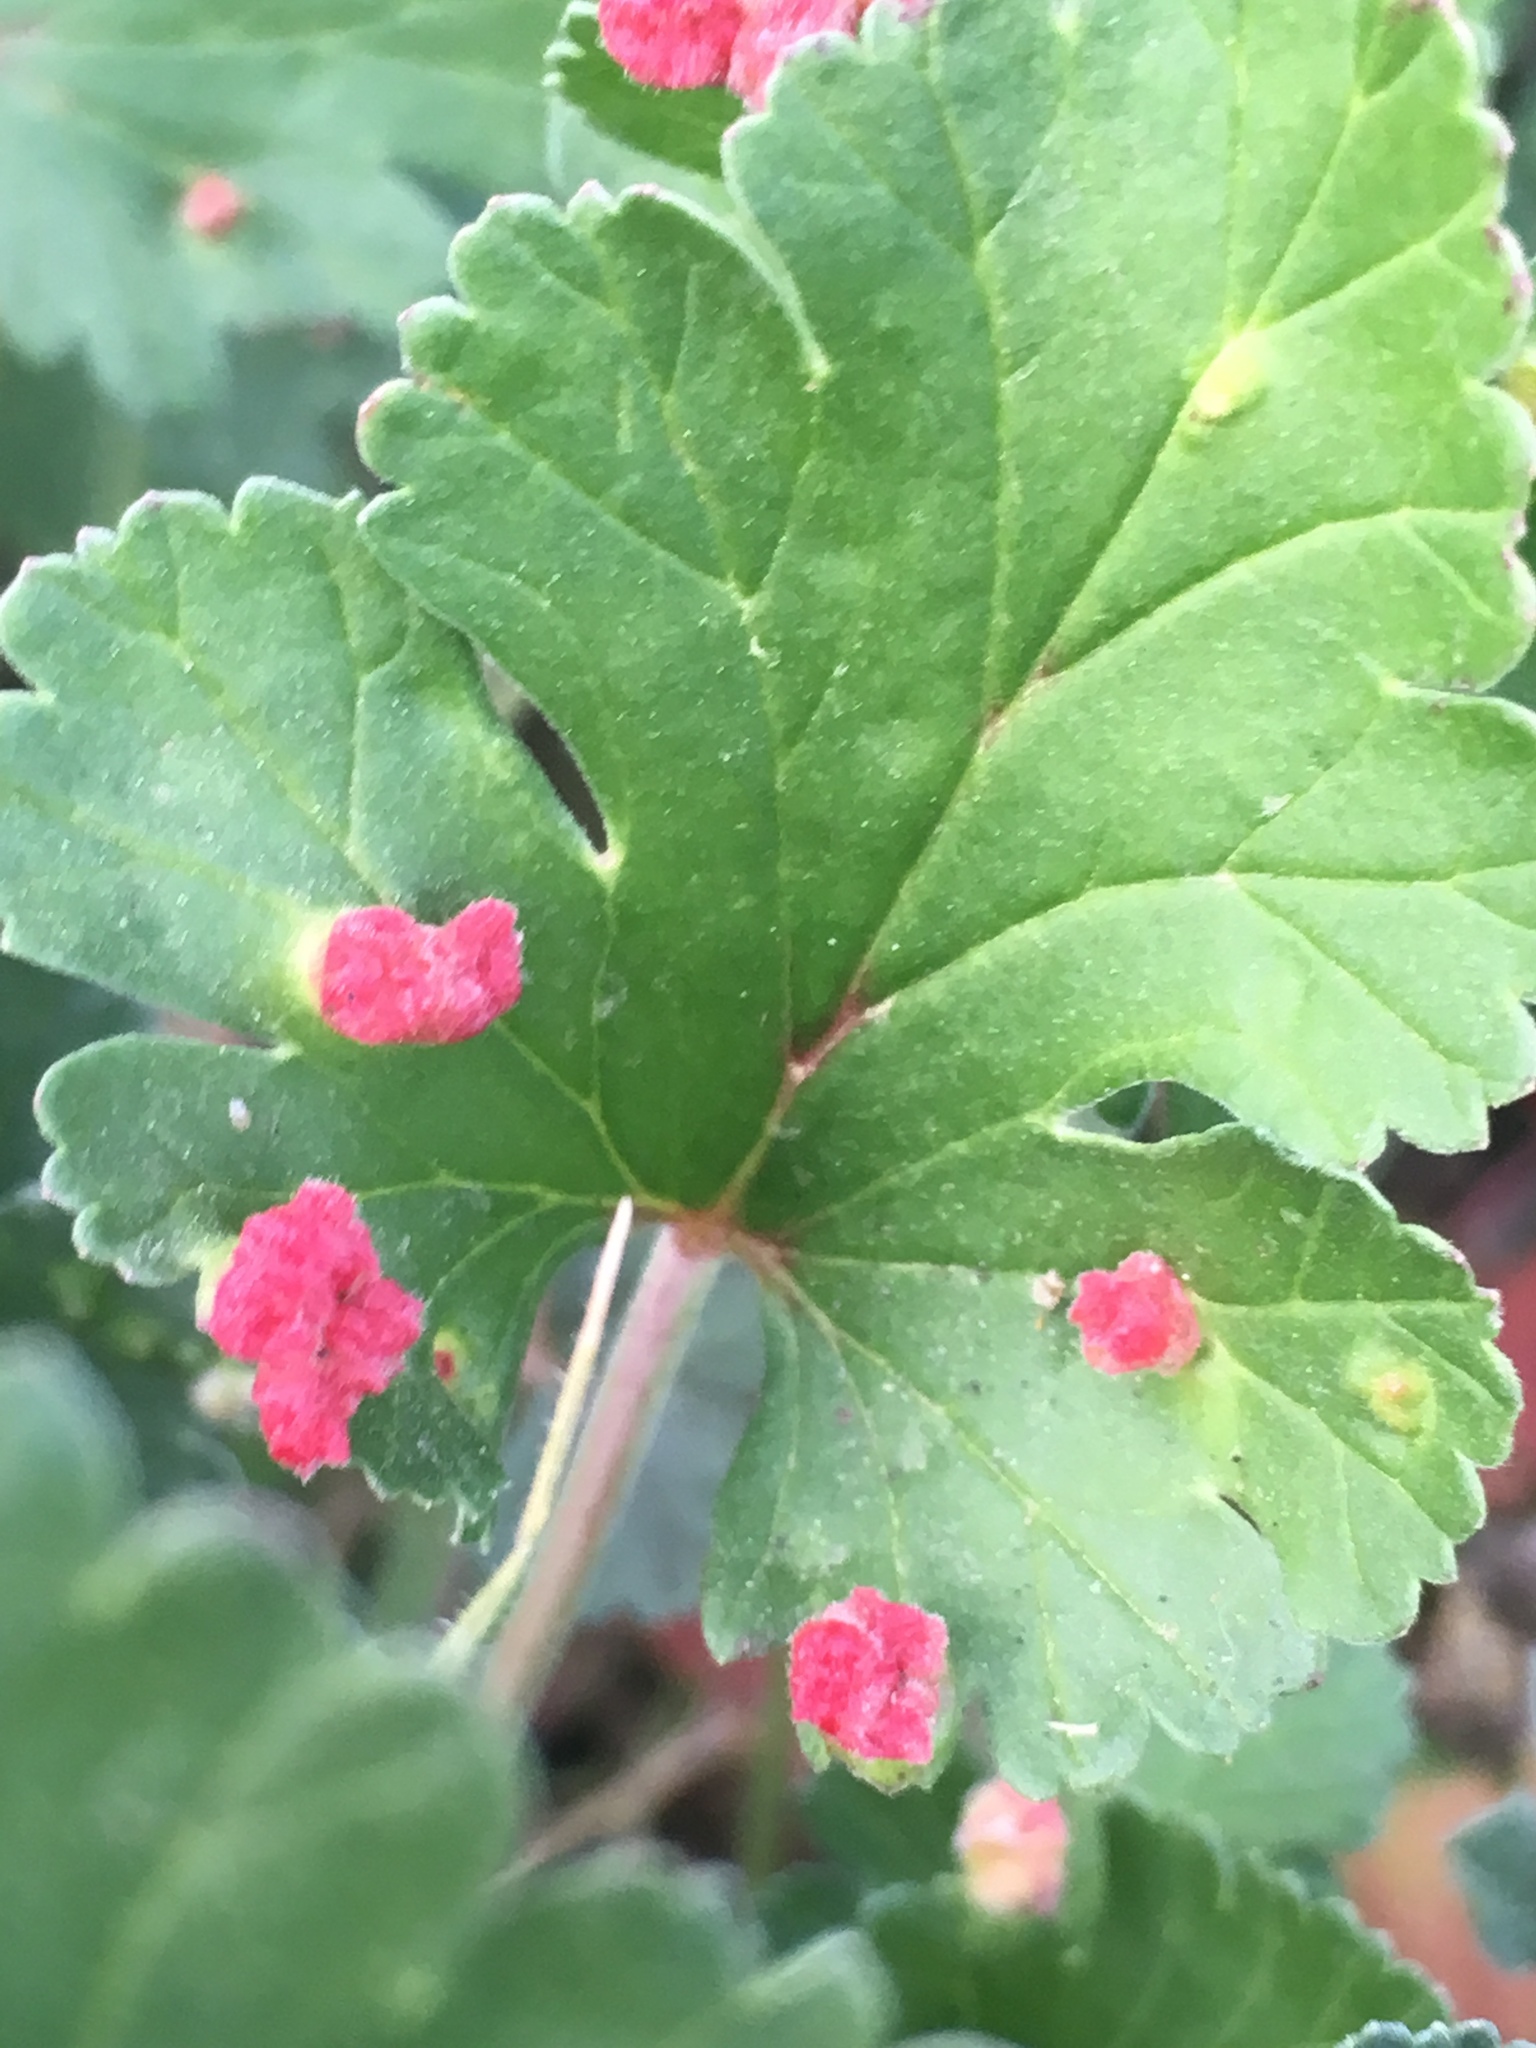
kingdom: Plantae
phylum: Tracheophyta
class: Magnoliopsida
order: Geraniales
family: Geraniaceae
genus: Erodium
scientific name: Erodium texanum
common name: Texas stork's-bill
